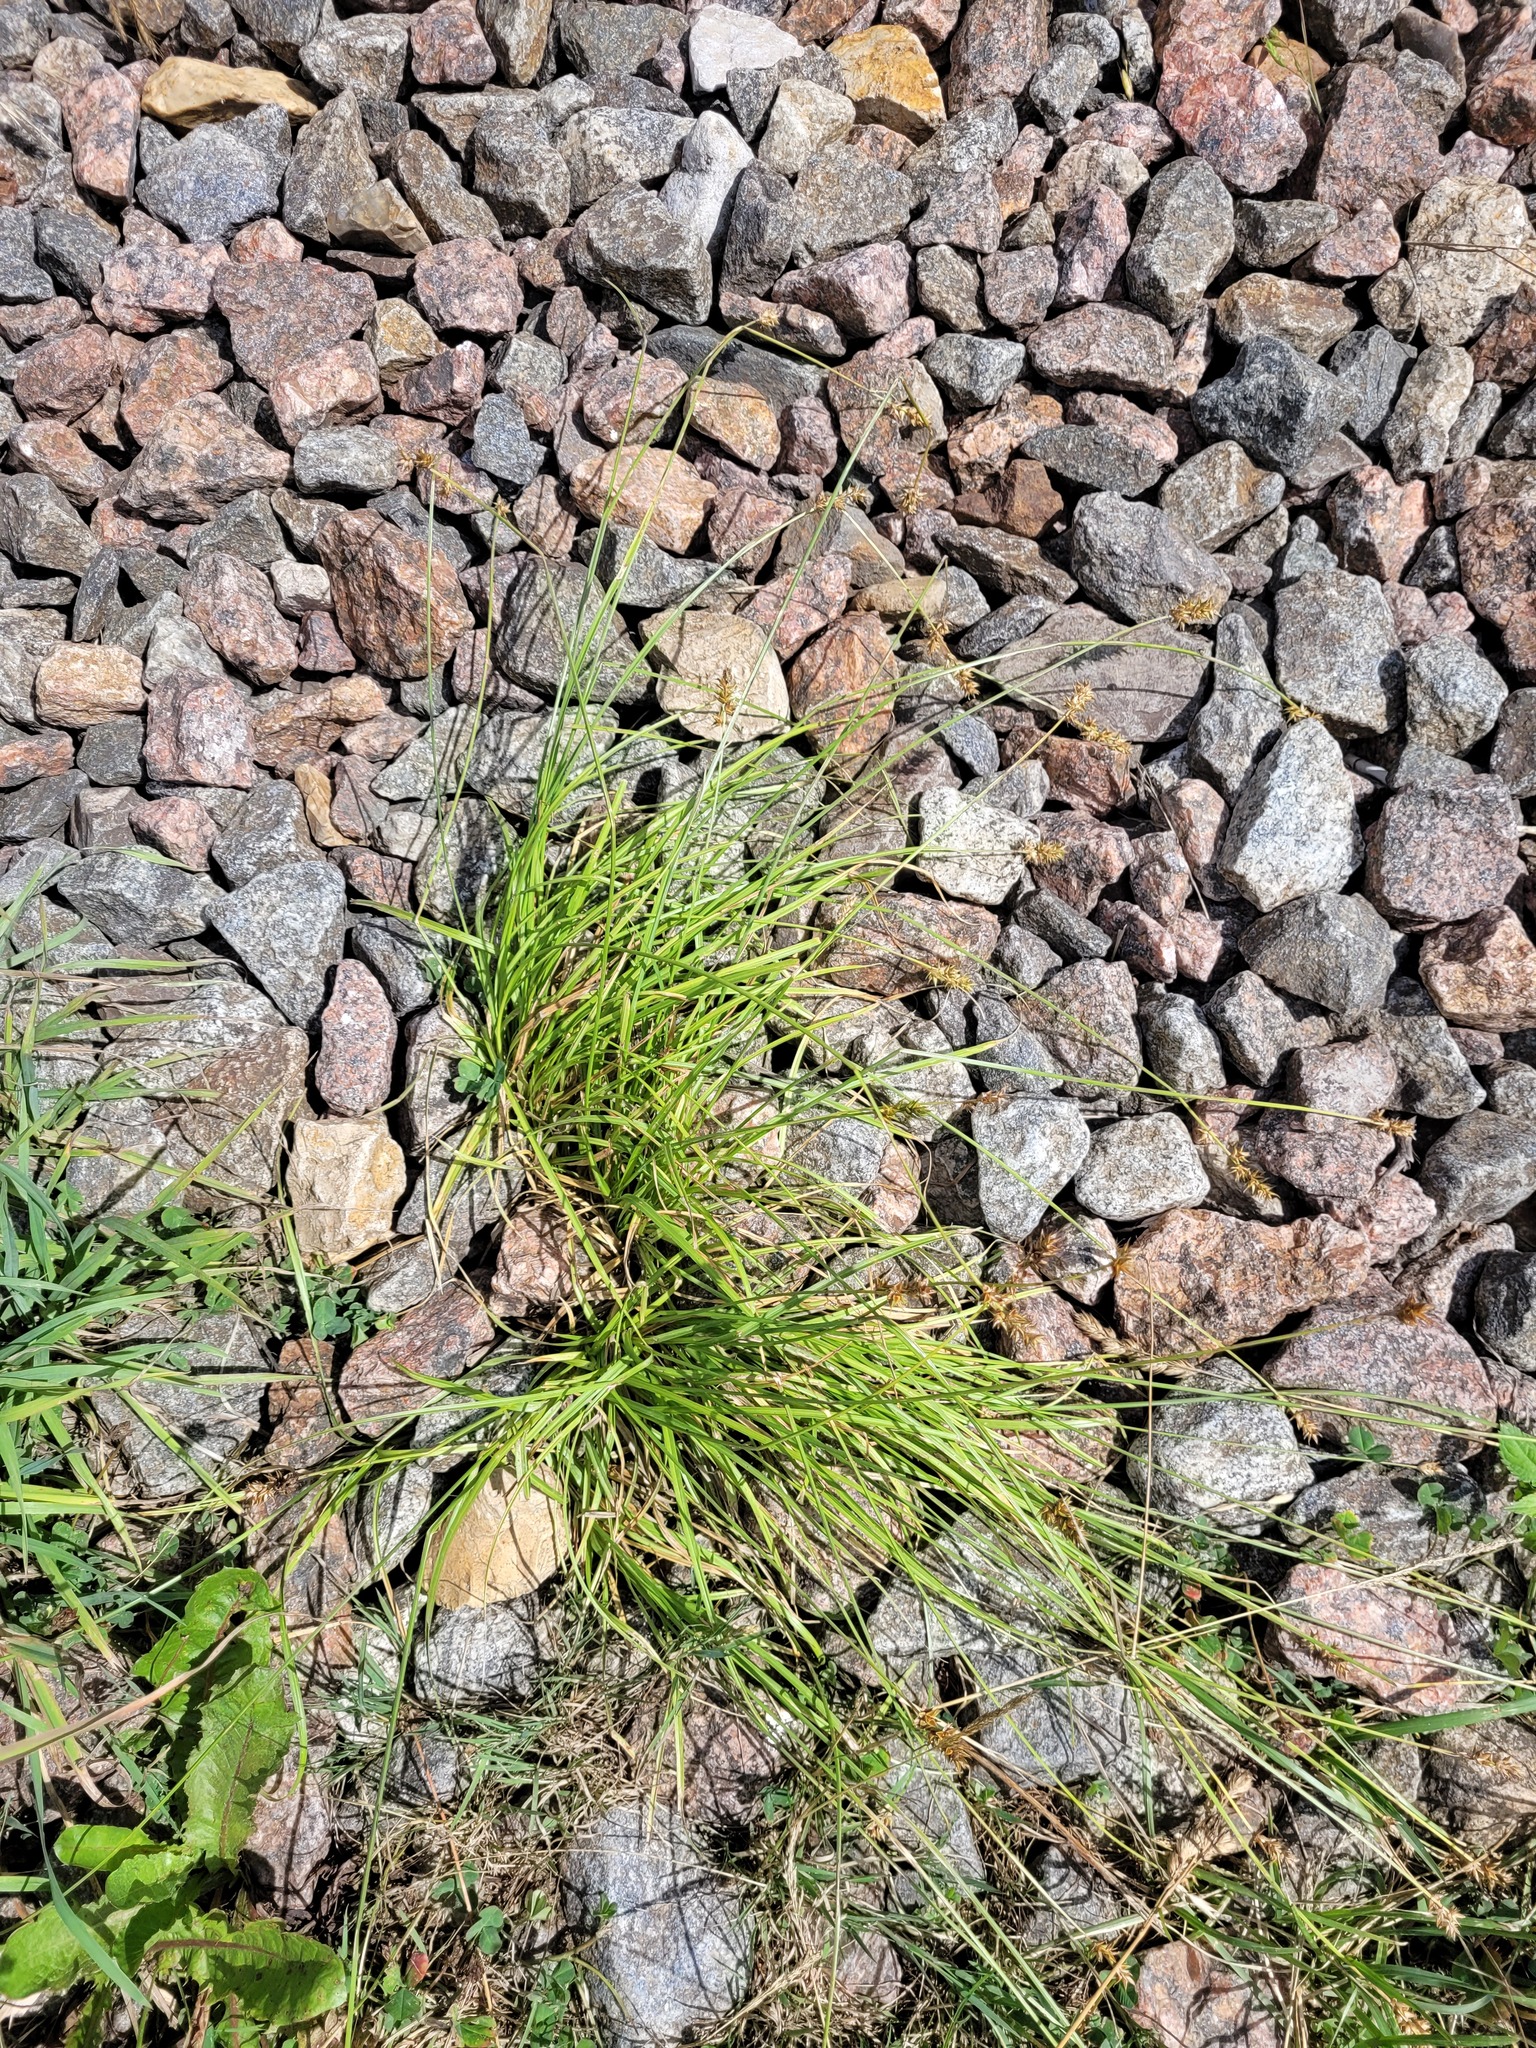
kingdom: Plantae
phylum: Tracheophyta
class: Liliopsida
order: Poales
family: Cyperaceae
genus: Carex
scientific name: Carex spicata
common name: Spiked sedge
